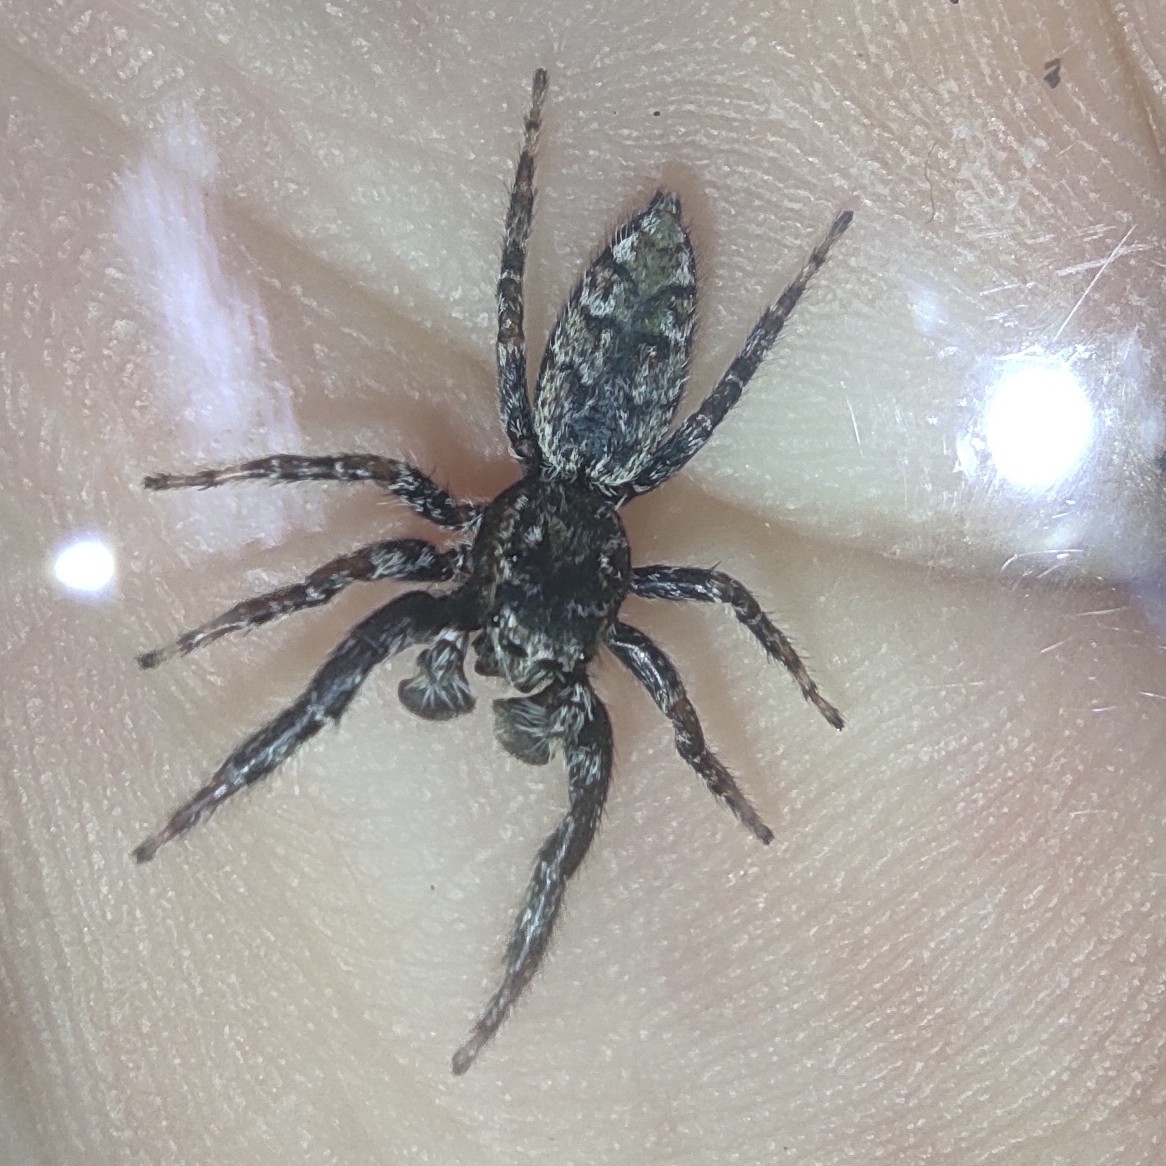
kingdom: Animalia
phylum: Arthropoda
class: Arachnida
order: Araneae
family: Salticidae
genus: Marpissa
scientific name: Marpissa muscosa
